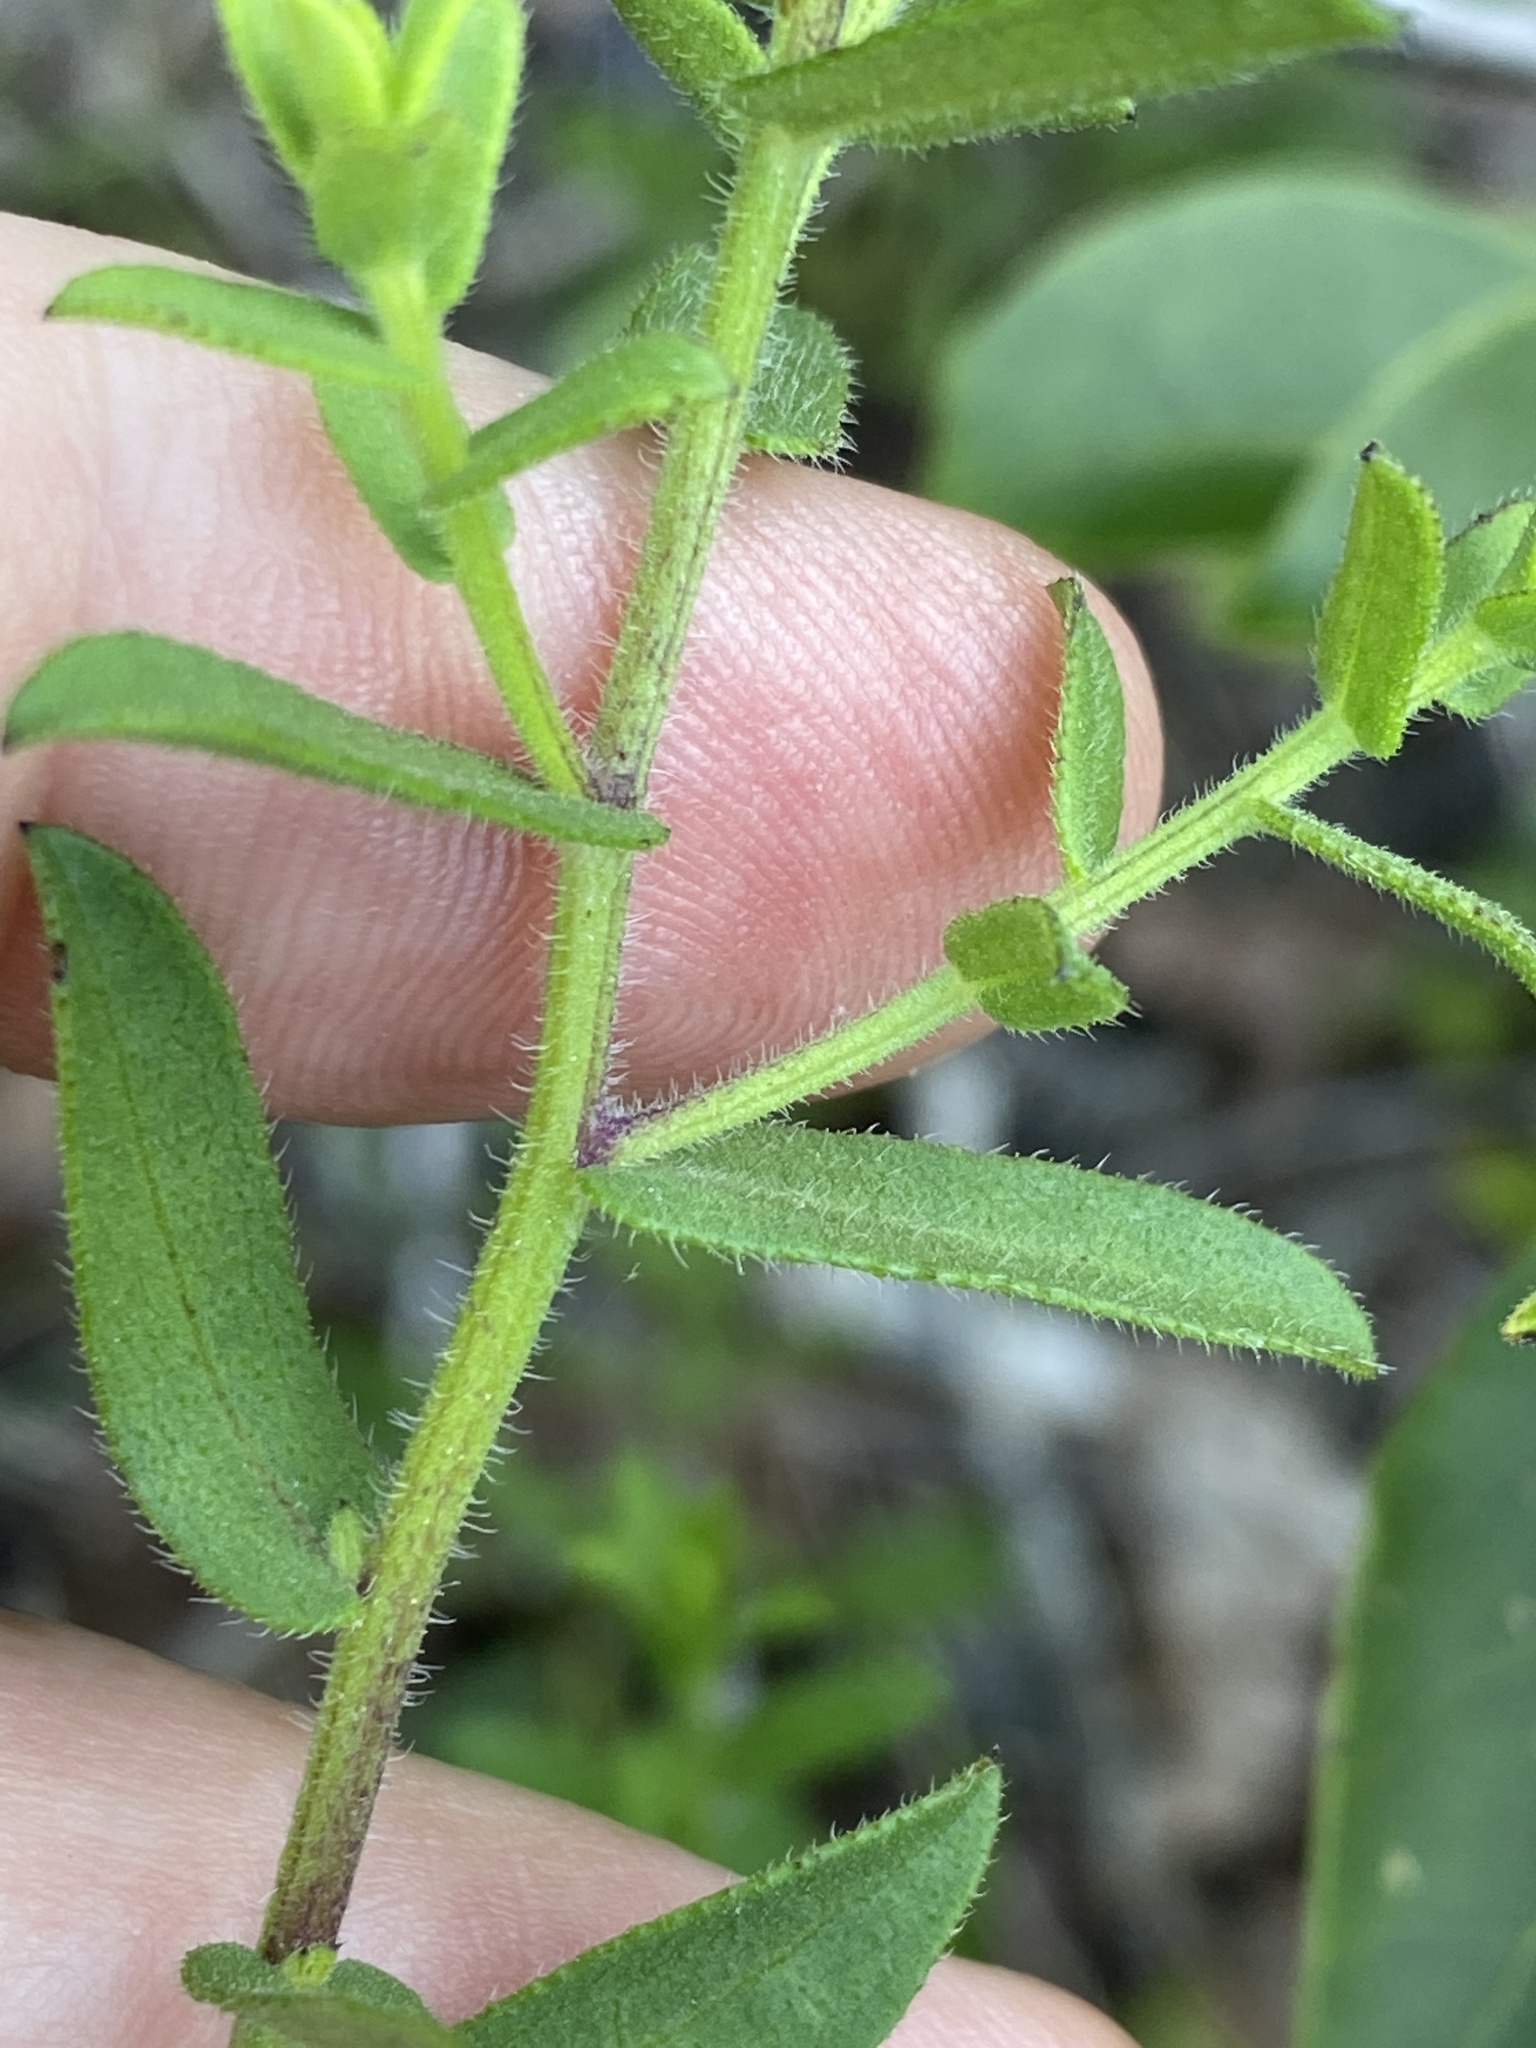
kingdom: Plantae
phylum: Tracheophyta
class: Magnoliopsida
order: Asterales
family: Asteraceae
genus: Symphyotrichum
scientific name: Symphyotrichum grandiflorum
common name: Big-head aster
